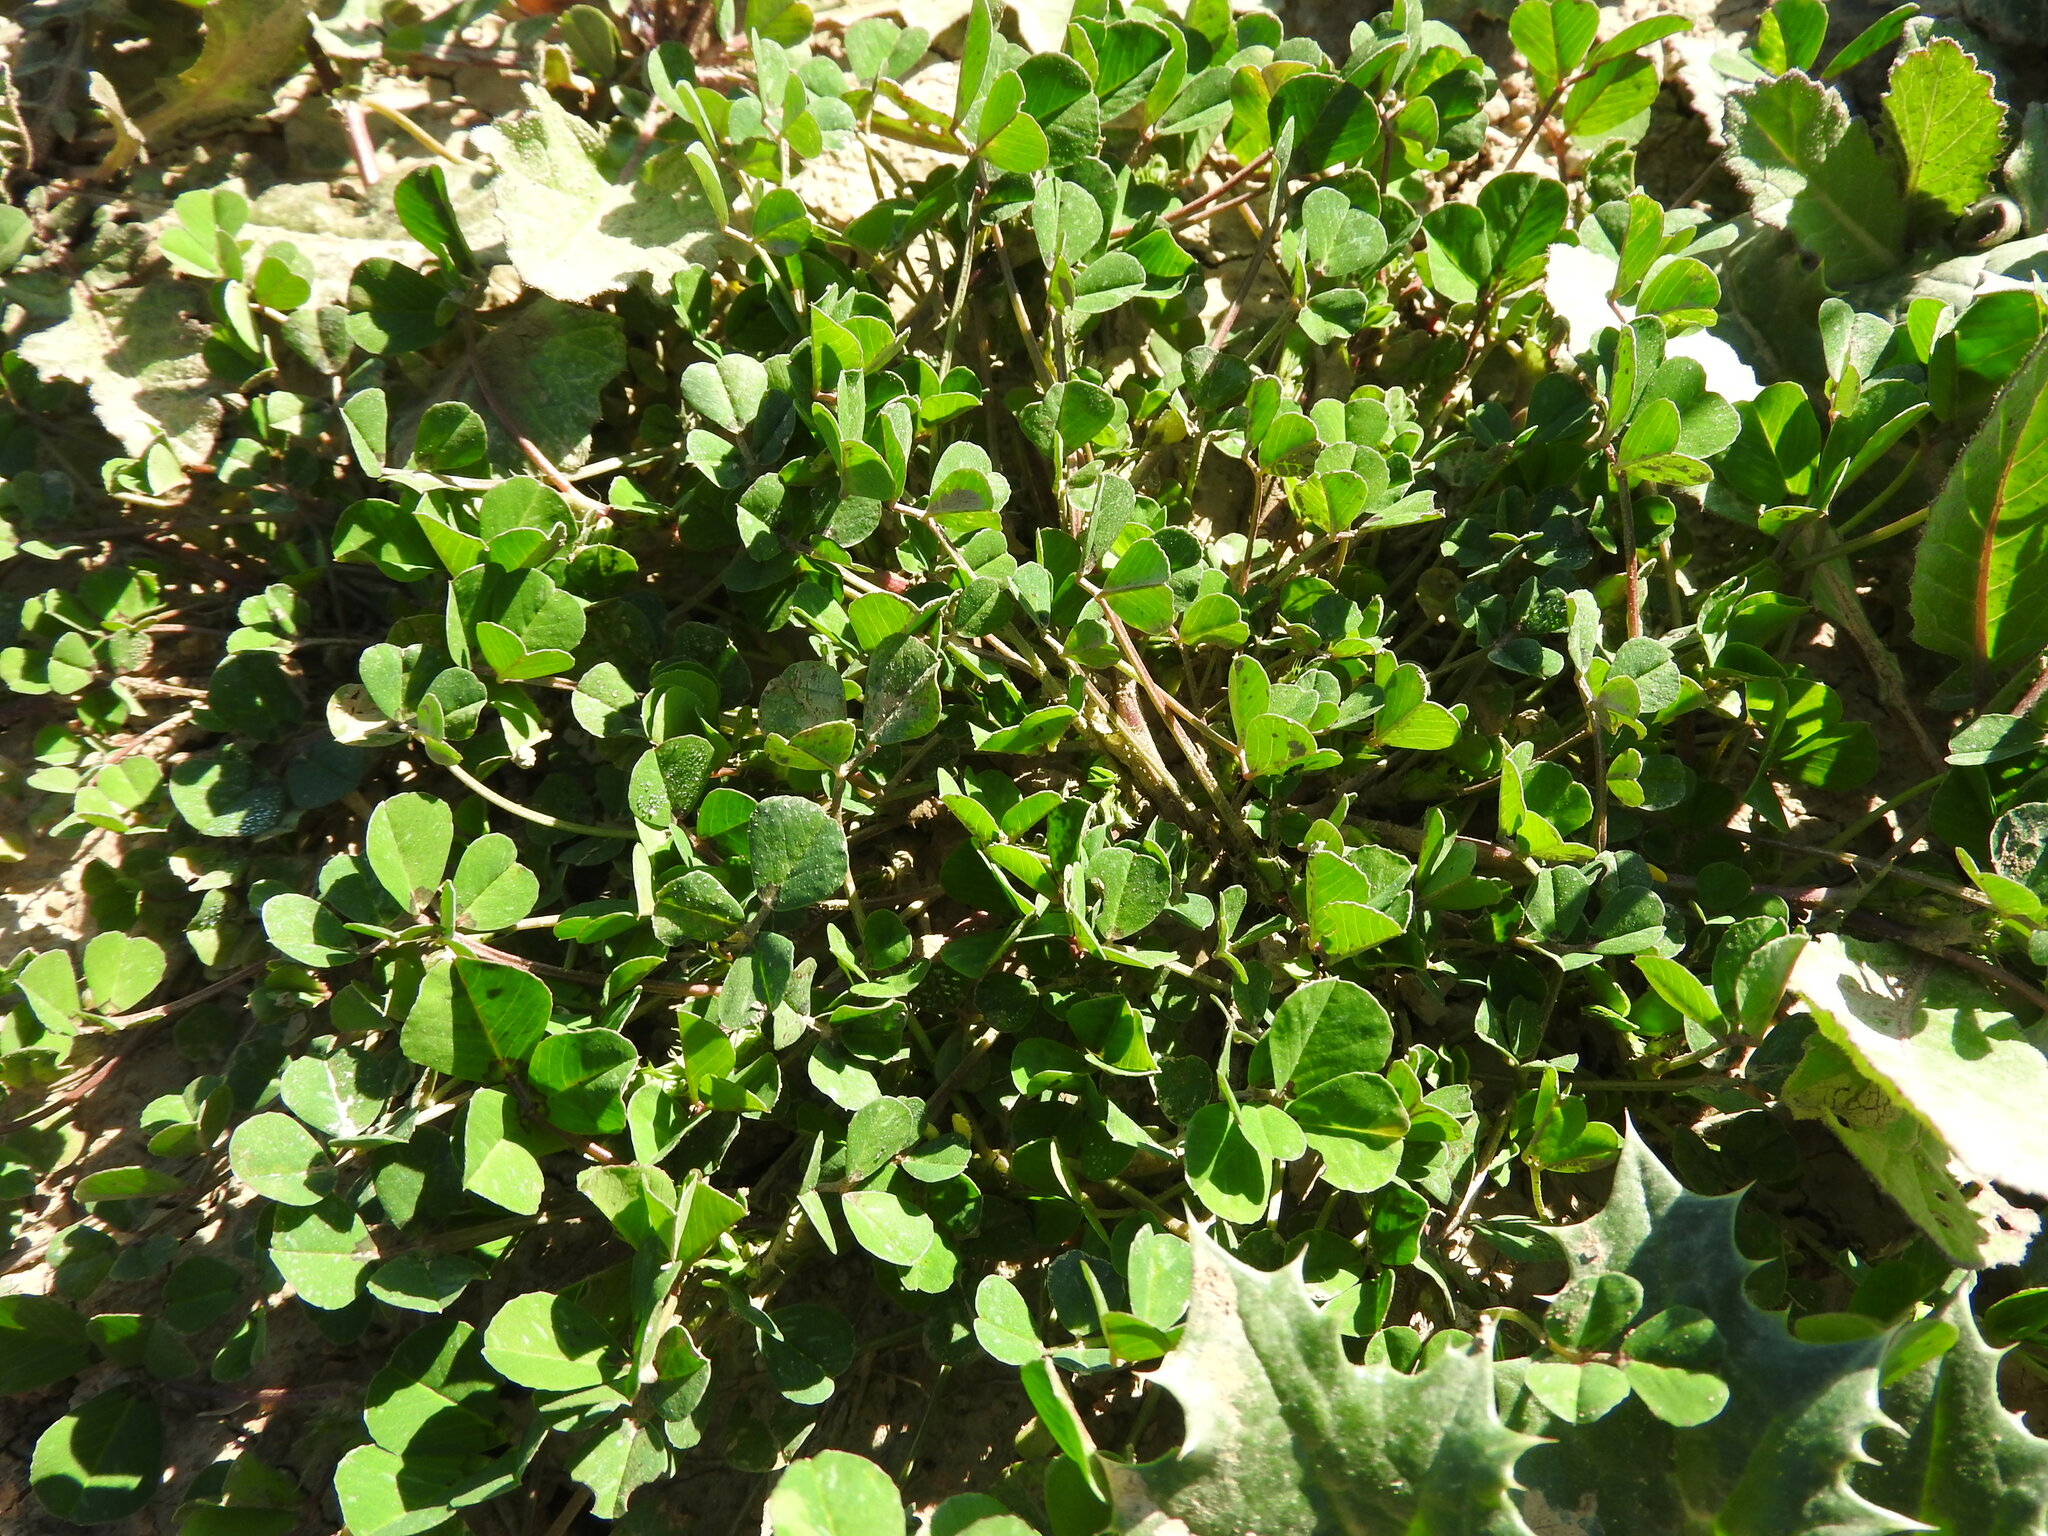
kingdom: Plantae
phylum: Tracheophyta
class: Magnoliopsida
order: Fabales
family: Fabaceae
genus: Medicago
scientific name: Medicago polymorpha
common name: Burclover
